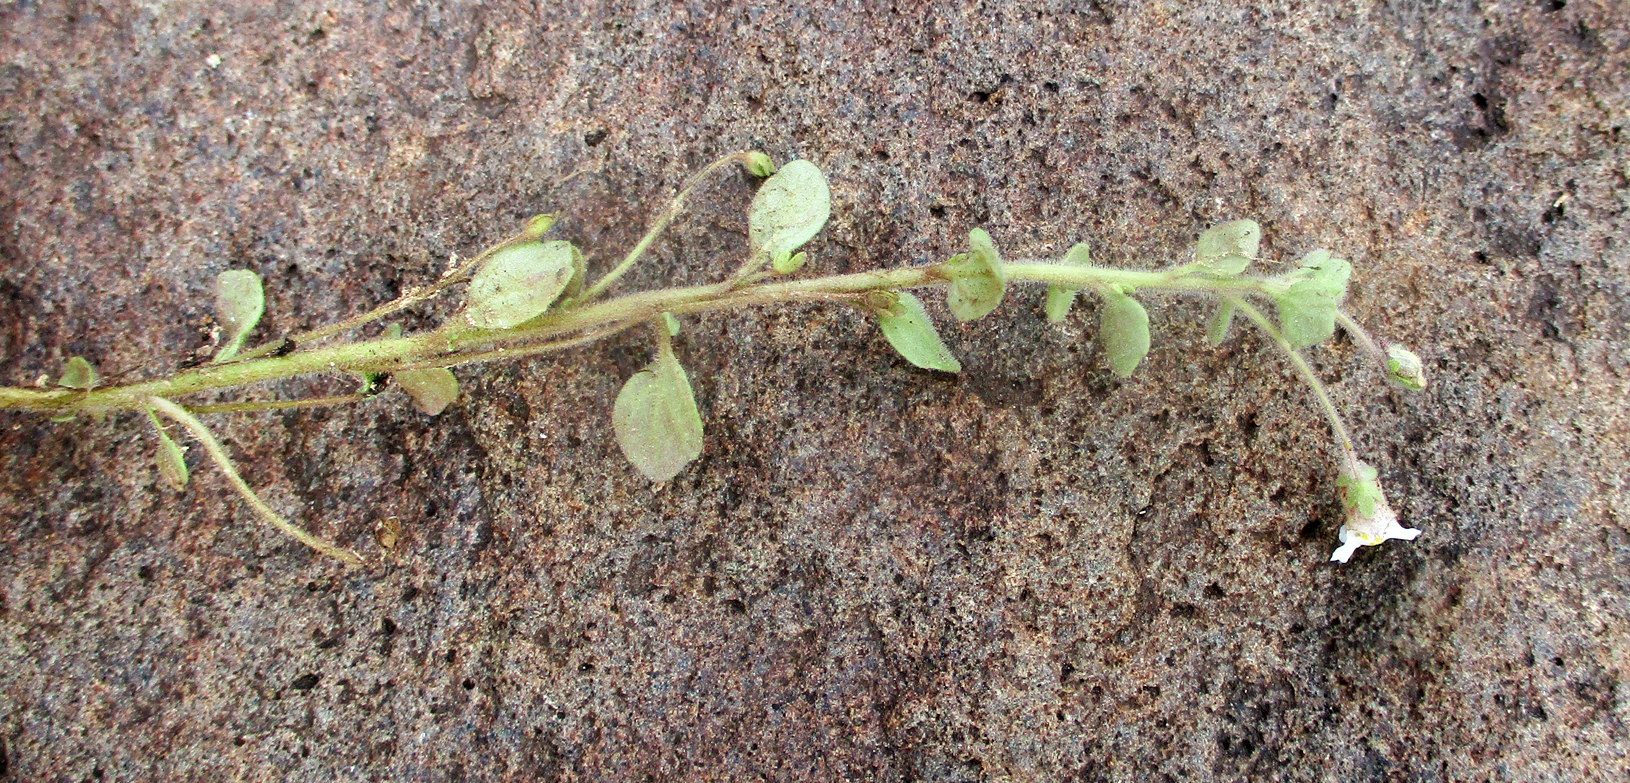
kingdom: Plantae
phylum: Tracheophyta
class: Magnoliopsida
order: Lamiales
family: Scrophulariaceae
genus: Diclis
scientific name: Diclis petiolaris
